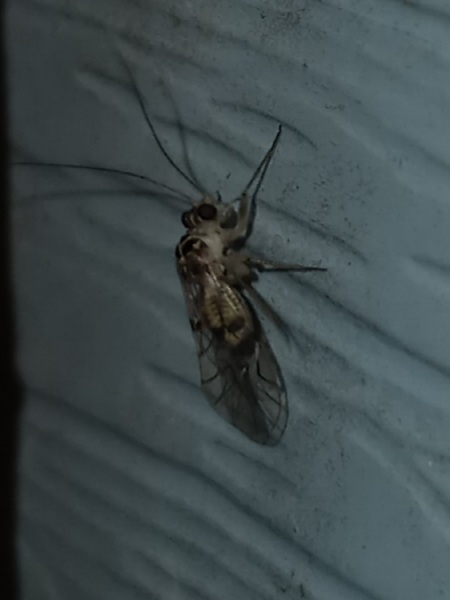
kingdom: Animalia
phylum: Arthropoda
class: Insecta
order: Psocodea
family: Psocidae
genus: Metylophorus
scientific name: Metylophorus purus
